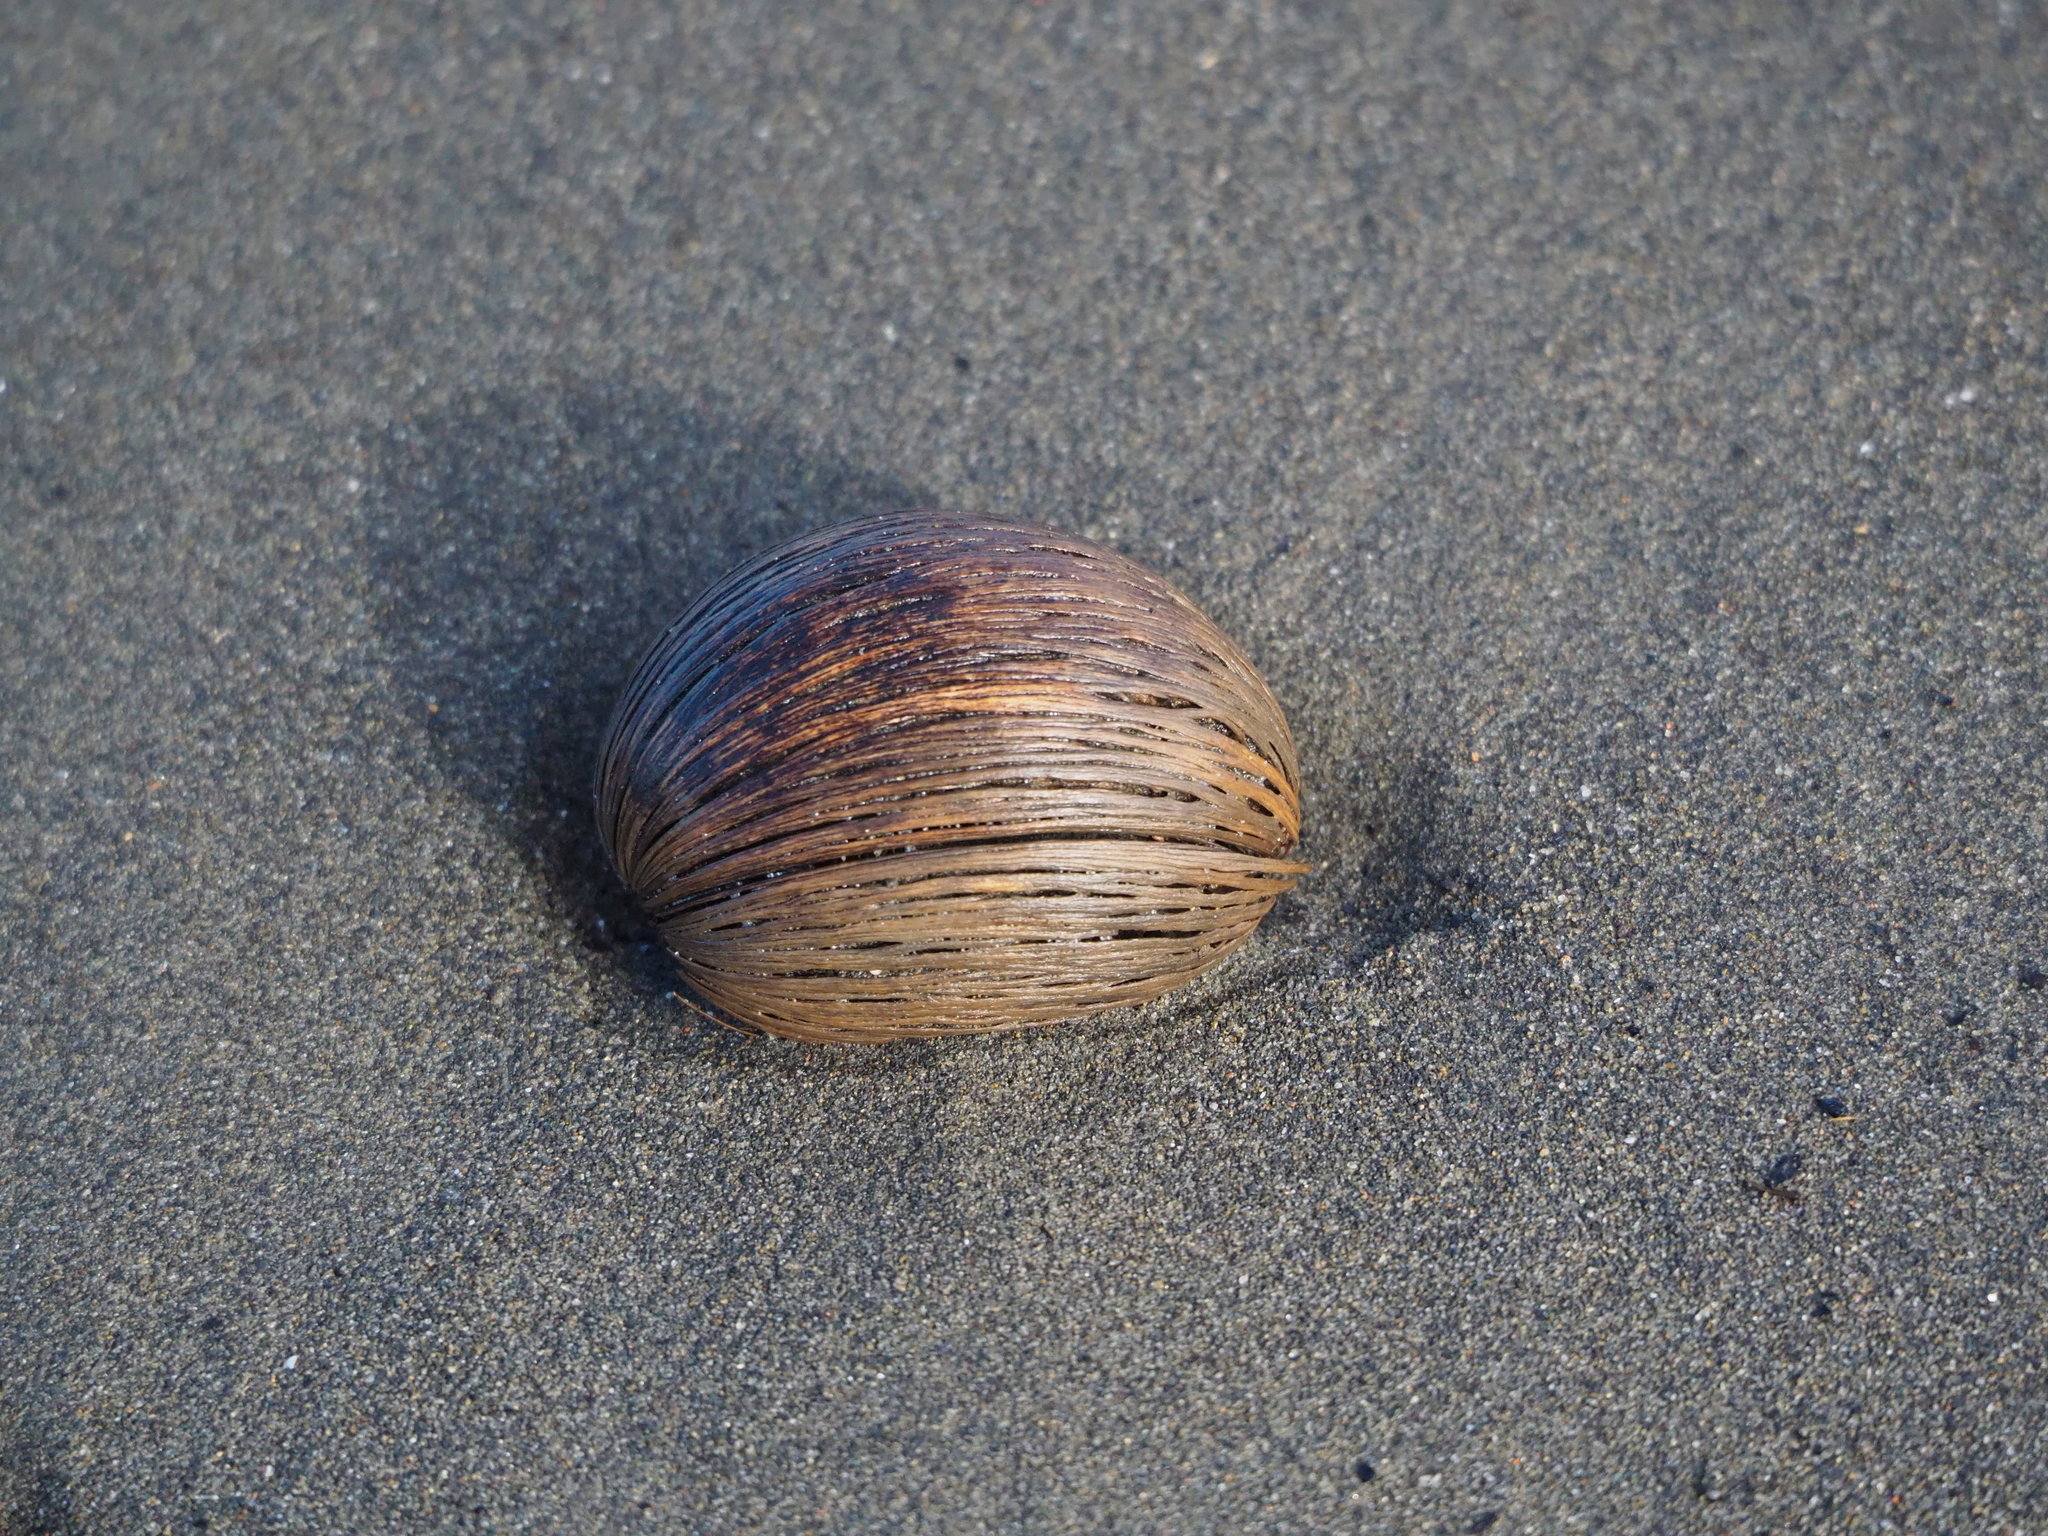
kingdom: Plantae
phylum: Tracheophyta
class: Magnoliopsida
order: Gentianales
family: Apocynaceae
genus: Cerbera
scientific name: Cerbera manghas
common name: Reva
